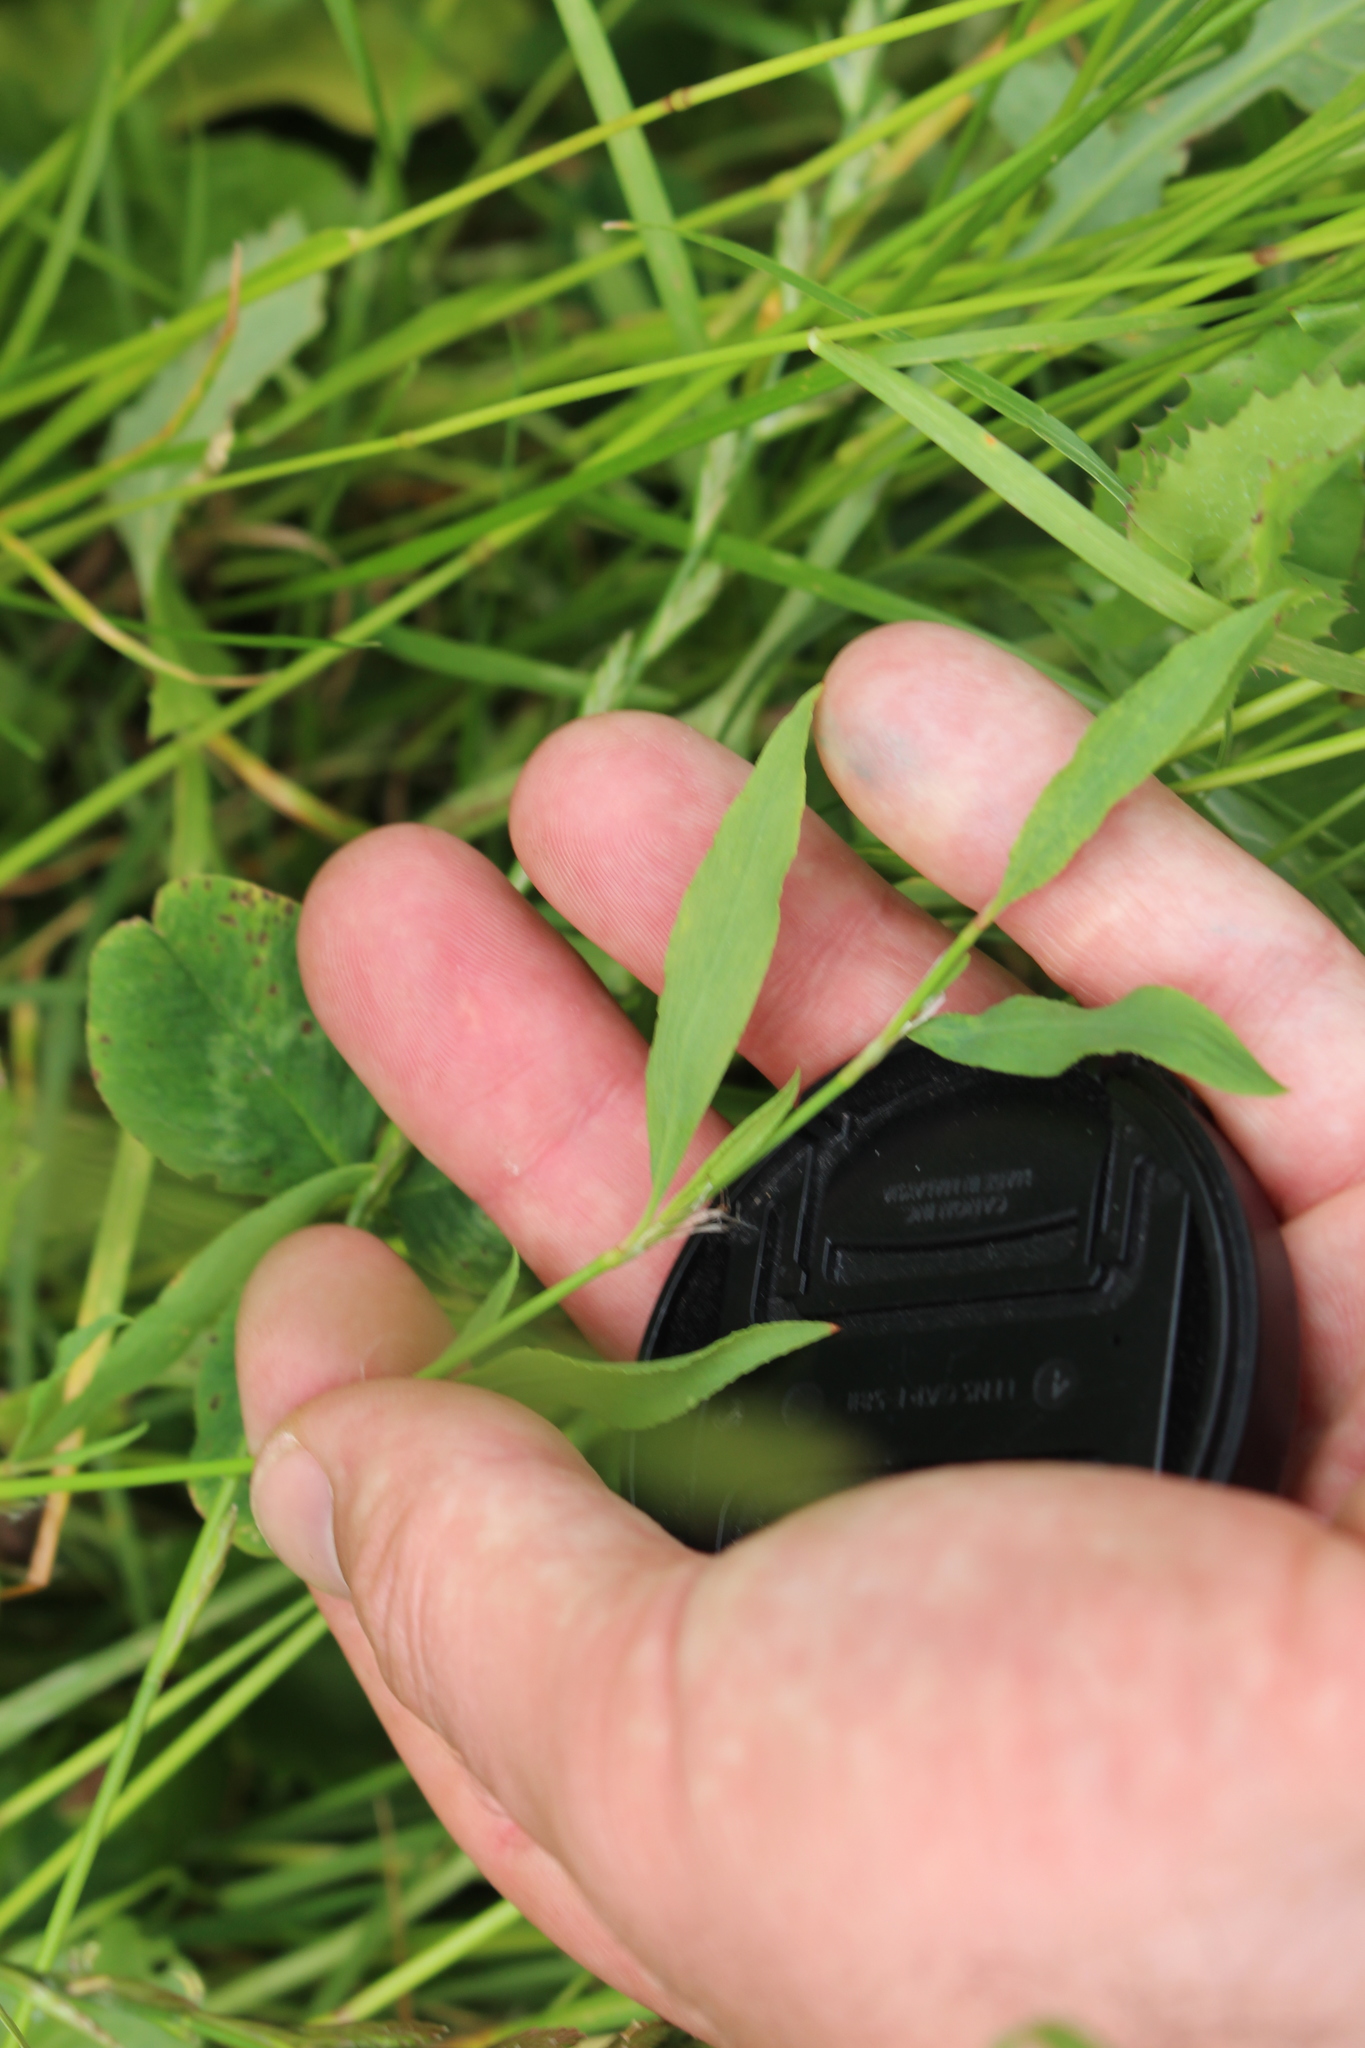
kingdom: Plantae
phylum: Tracheophyta
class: Magnoliopsida
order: Caryophyllales
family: Polygonaceae
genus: Polygonum
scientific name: Polygonum aviculare
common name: Prostrate knotweed
